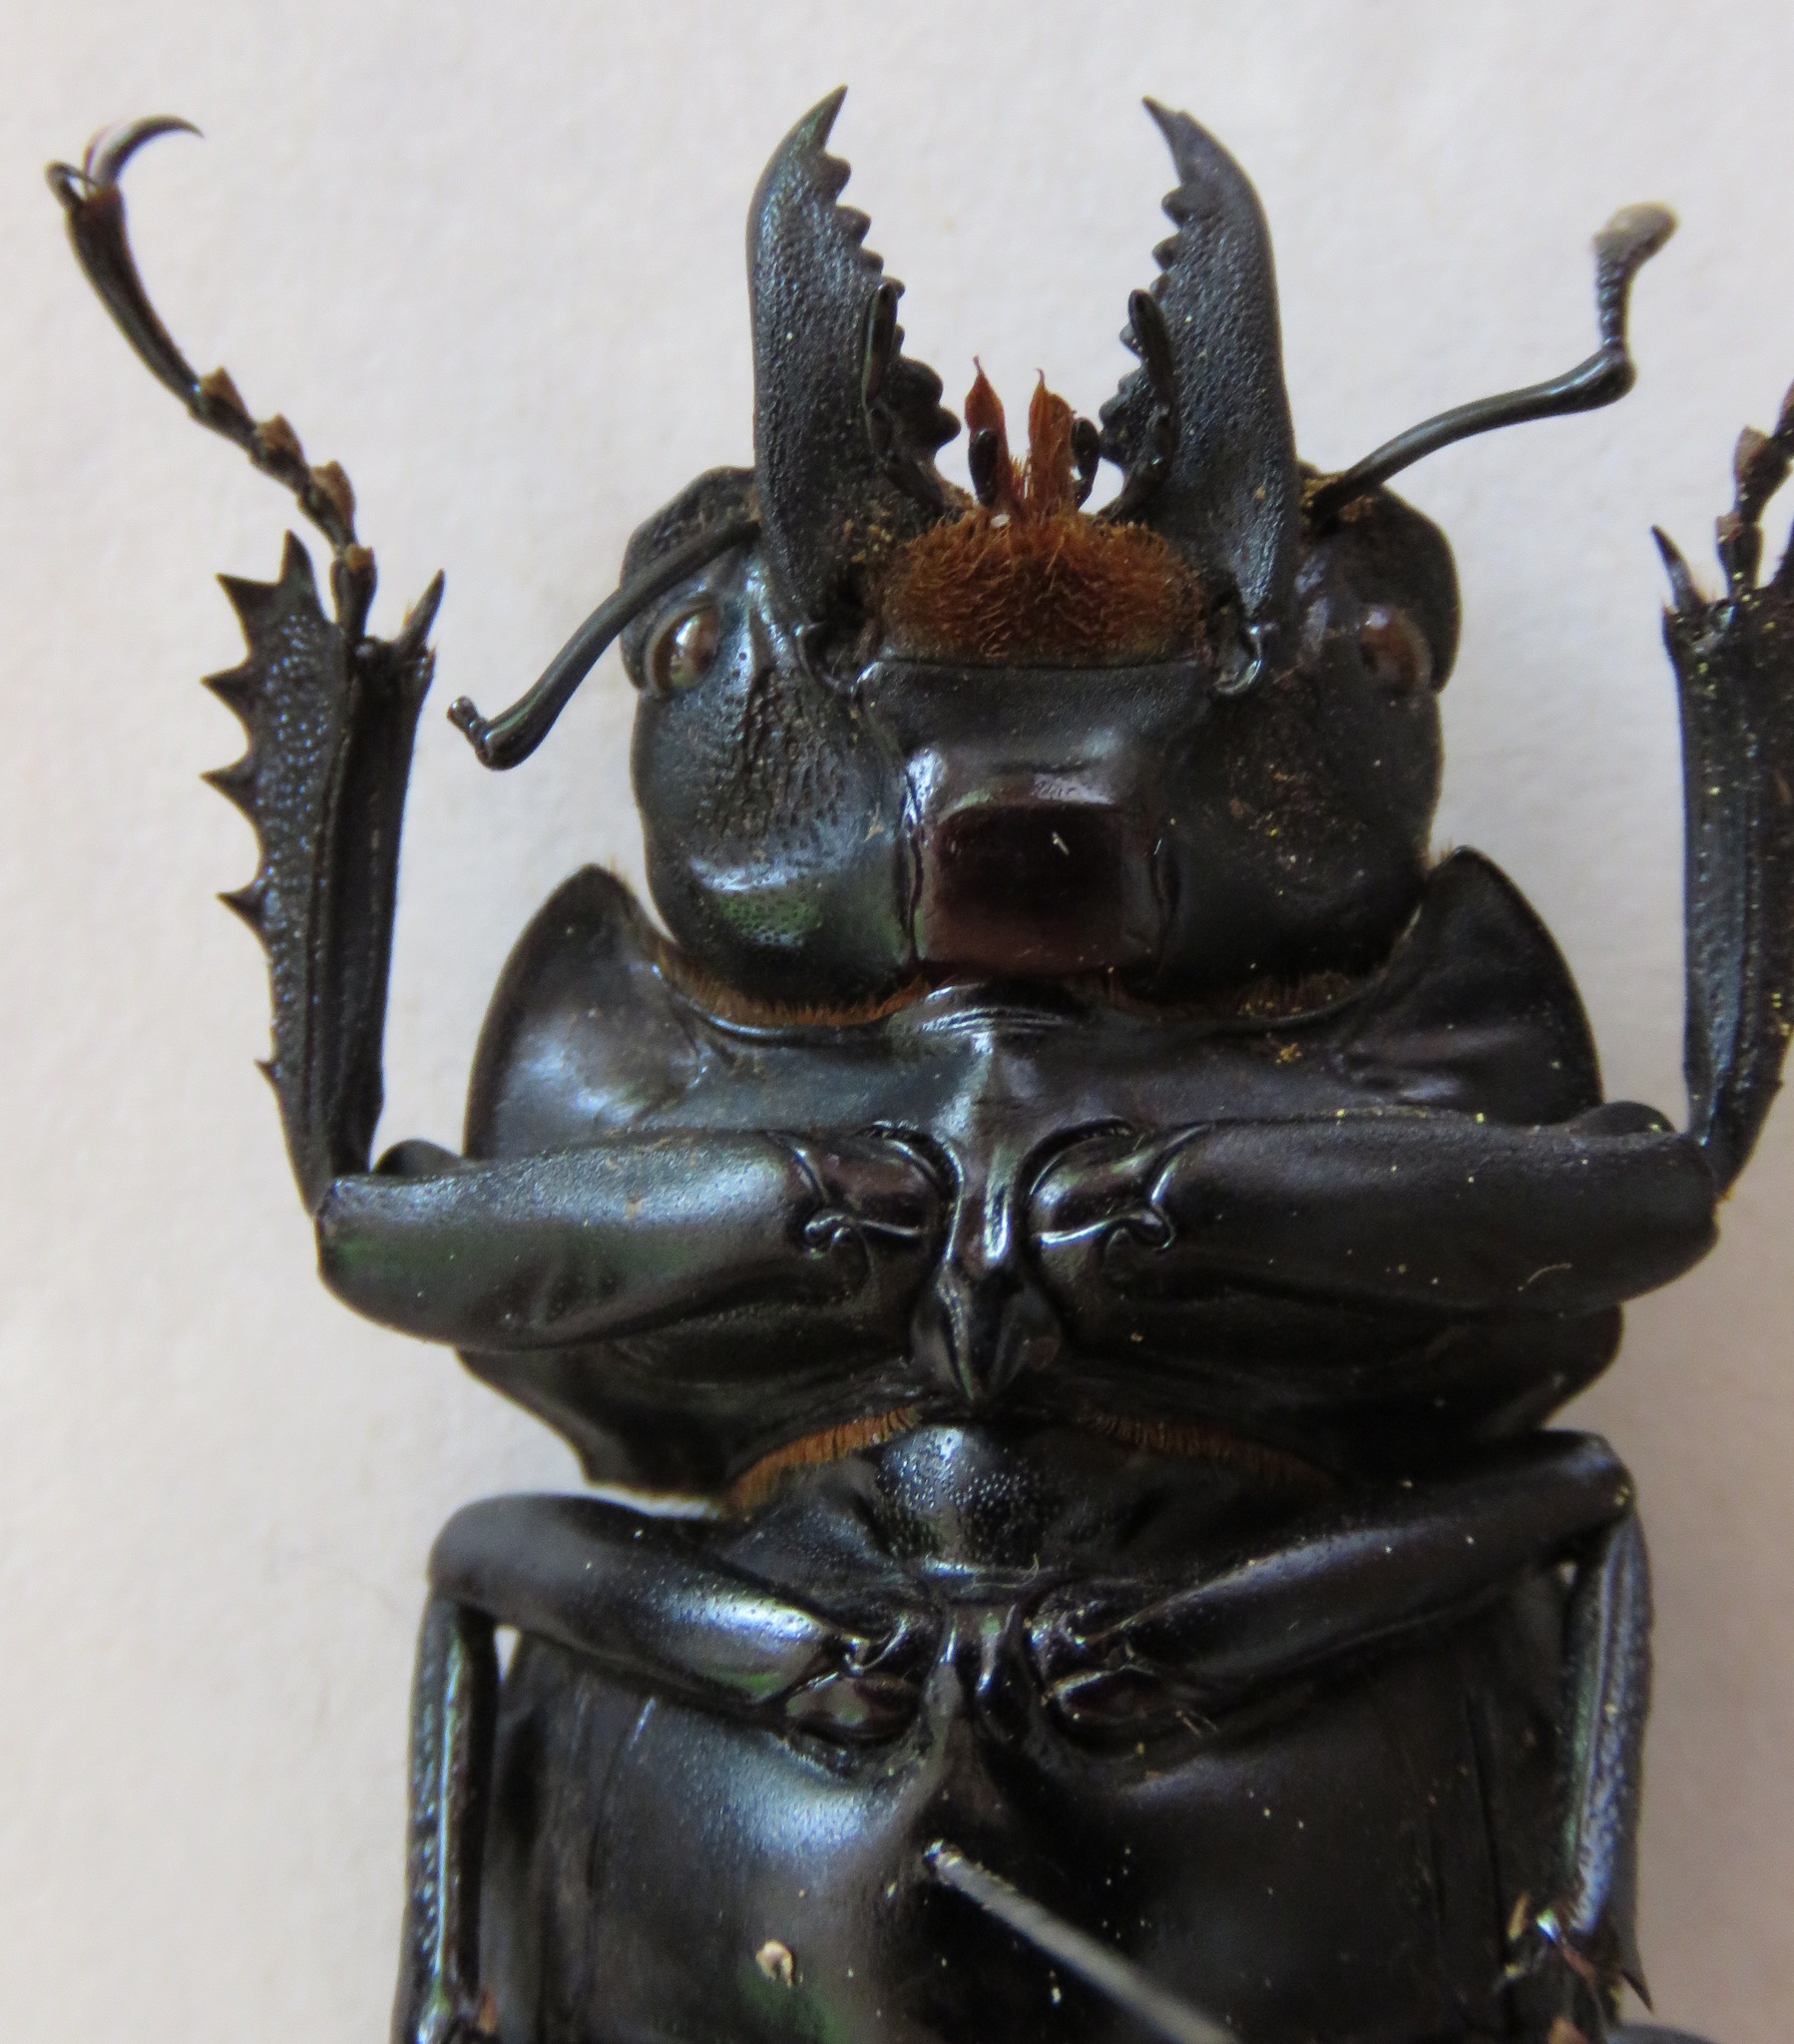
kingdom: Animalia
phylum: Arthropoda
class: Insecta
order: Coleoptera
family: Lucanidae
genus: Neolucanus
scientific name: Neolucanus fiedleri
